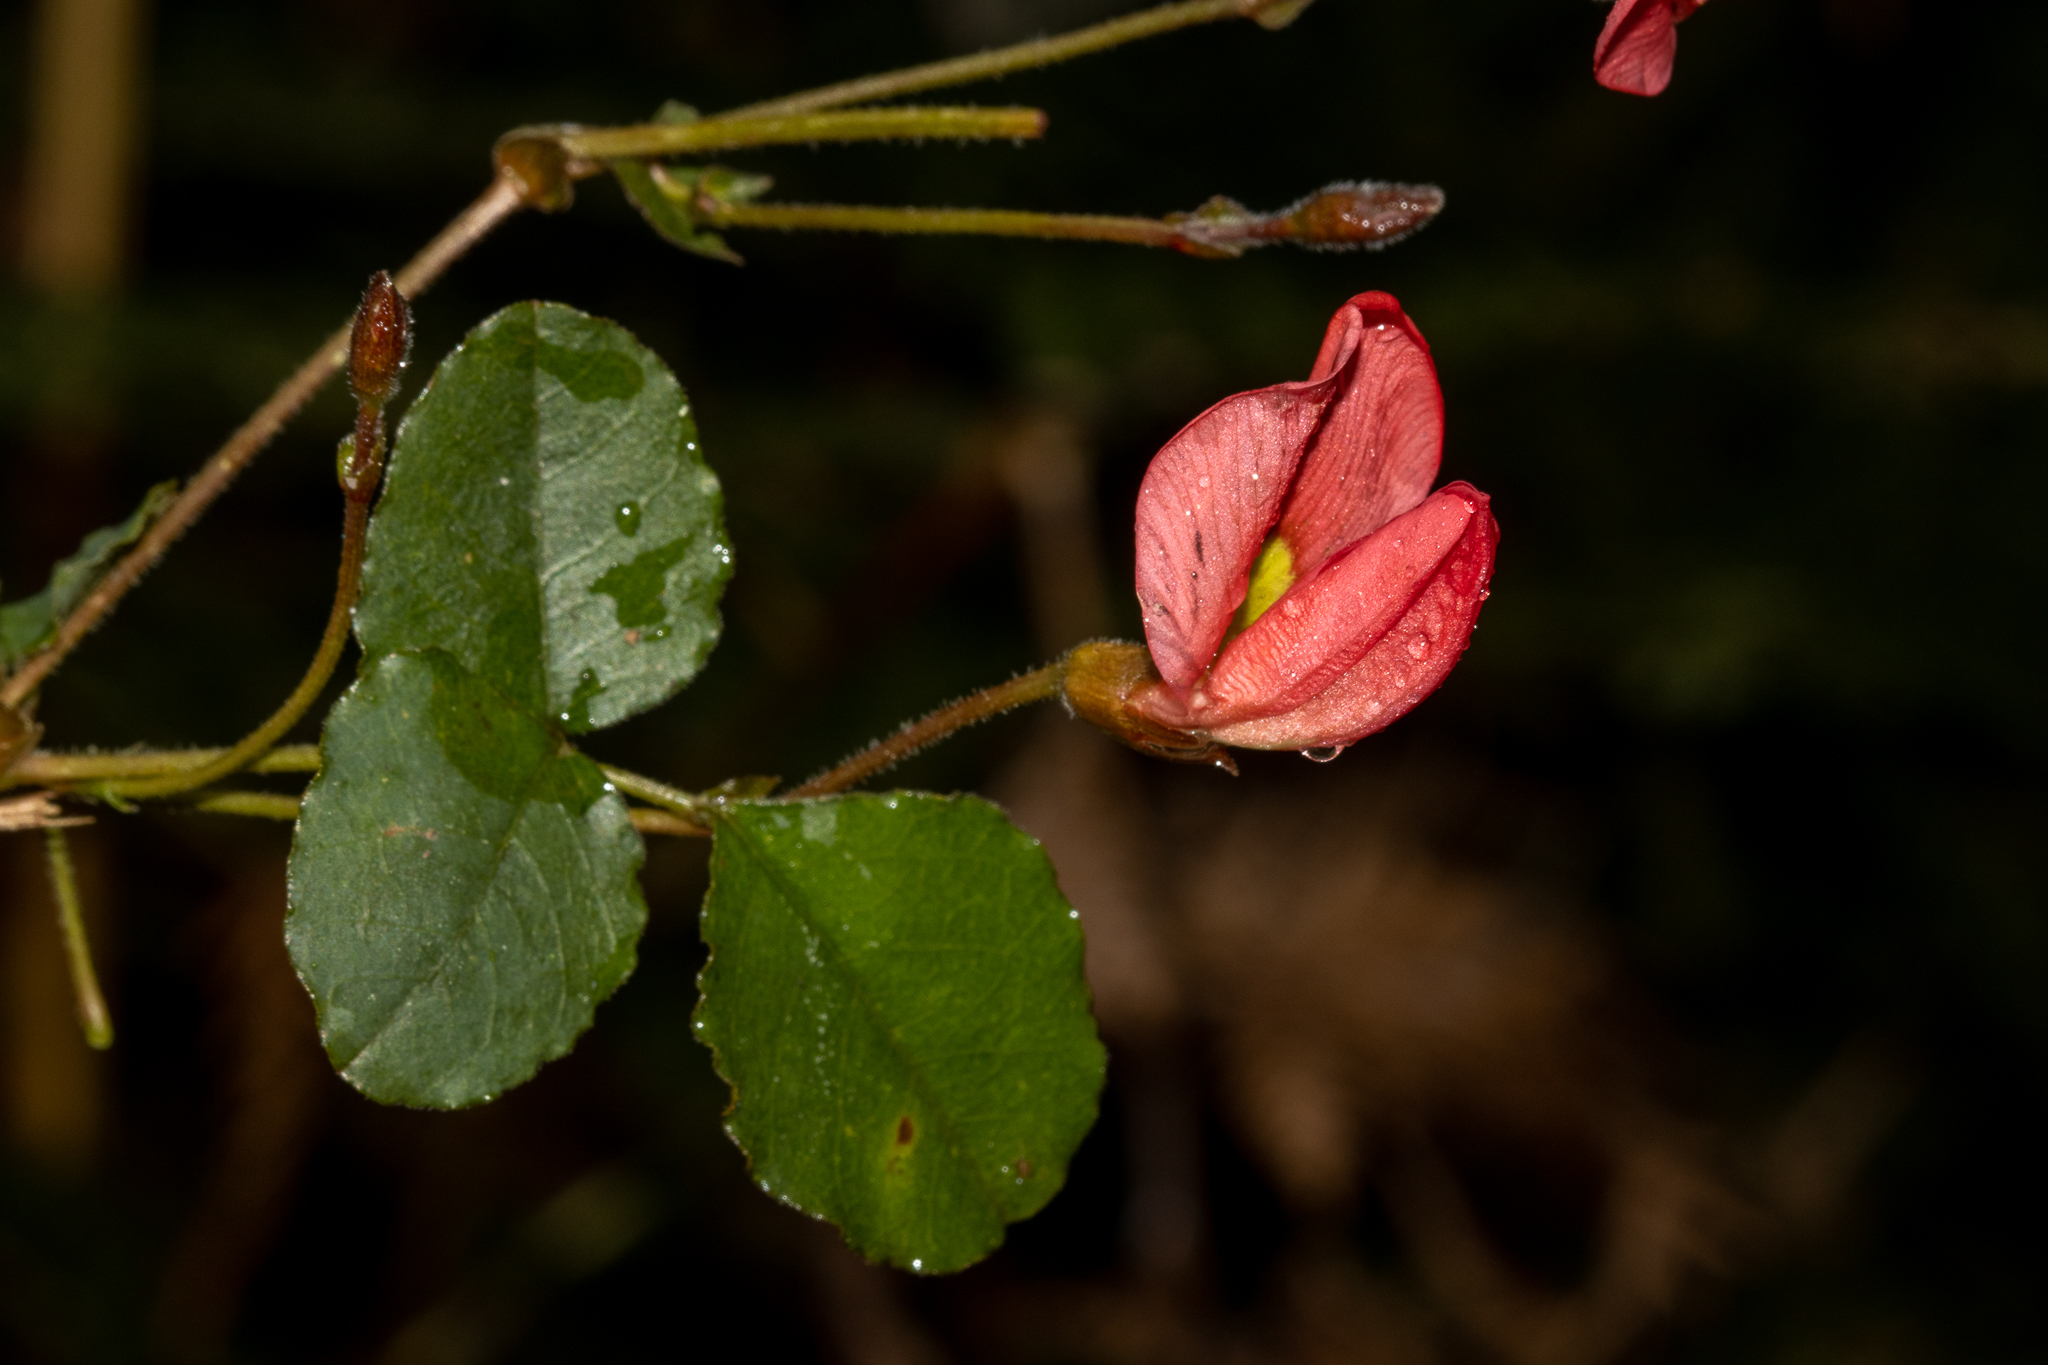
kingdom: Plantae
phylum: Tracheophyta
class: Magnoliopsida
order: Fabales
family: Fabaceae
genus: Kennedia
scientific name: Kennedia prostrata
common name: Running-postman
